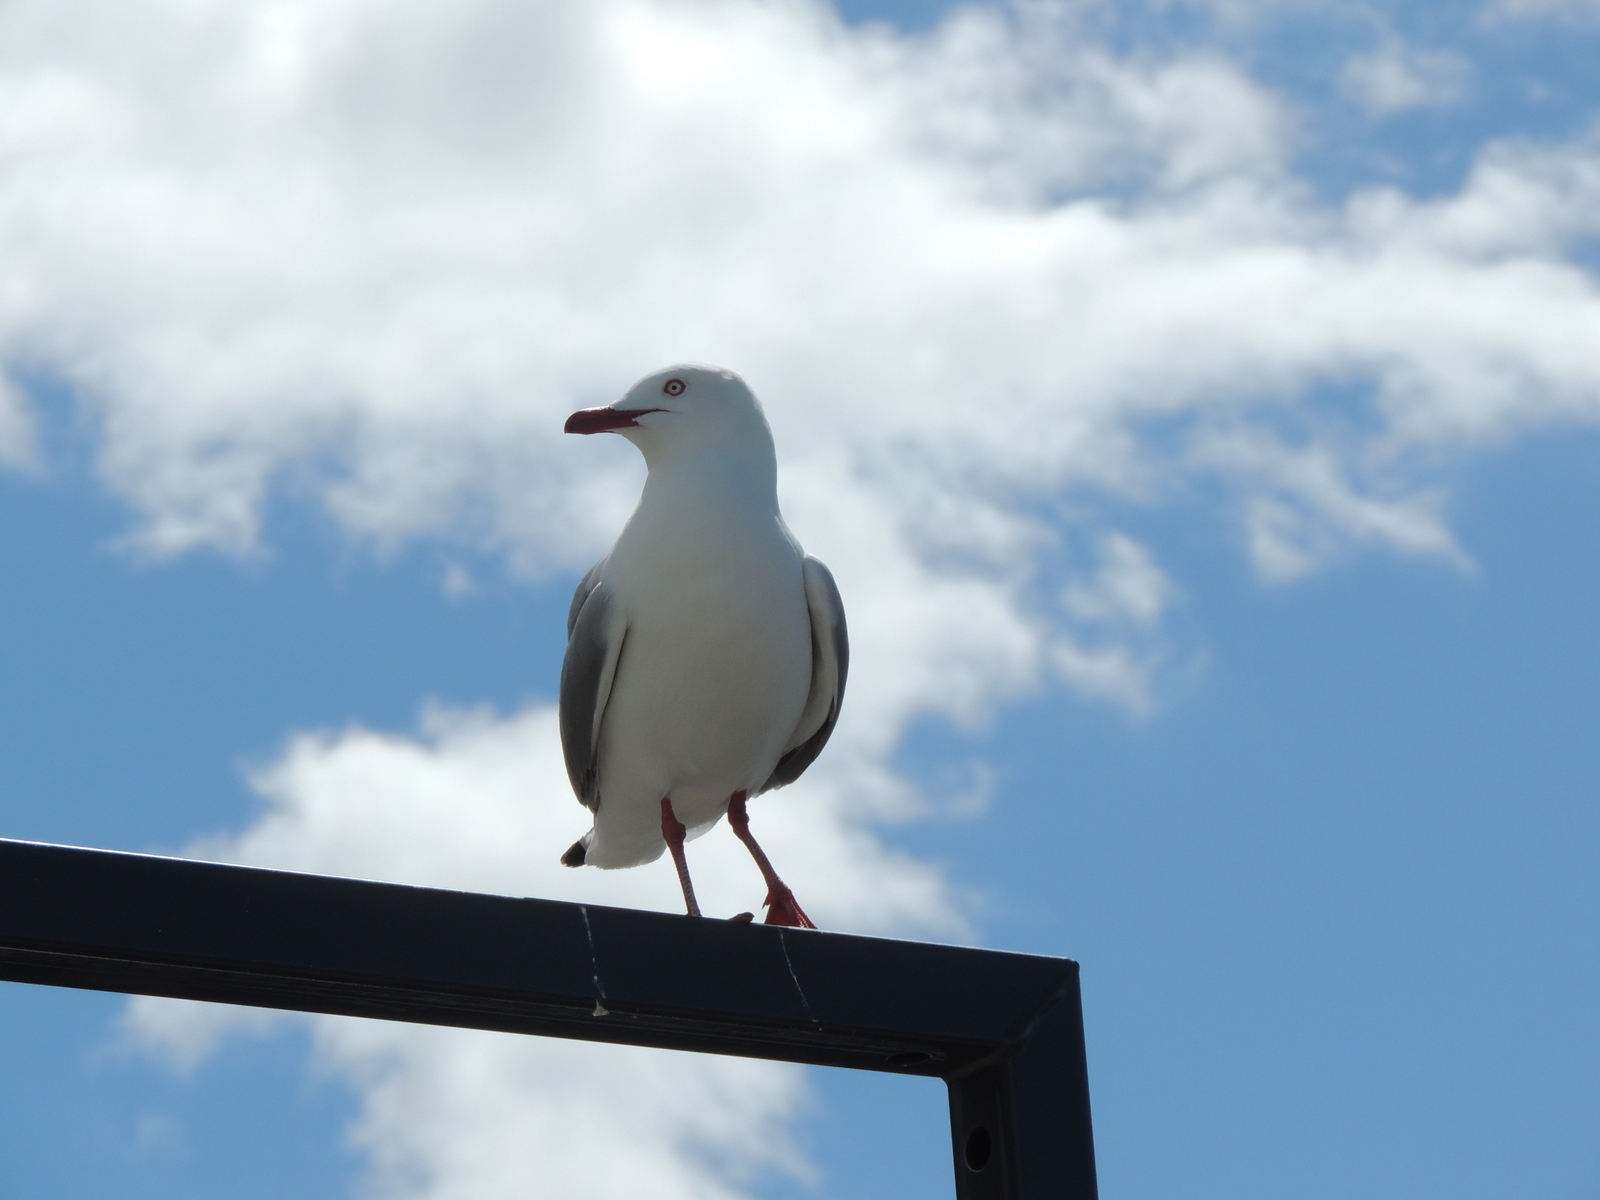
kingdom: Animalia
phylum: Chordata
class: Aves
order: Charadriiformes
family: Laridae
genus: Chroicocephalus
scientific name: Chroicocephalus novaehollandiae
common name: Silver gull
